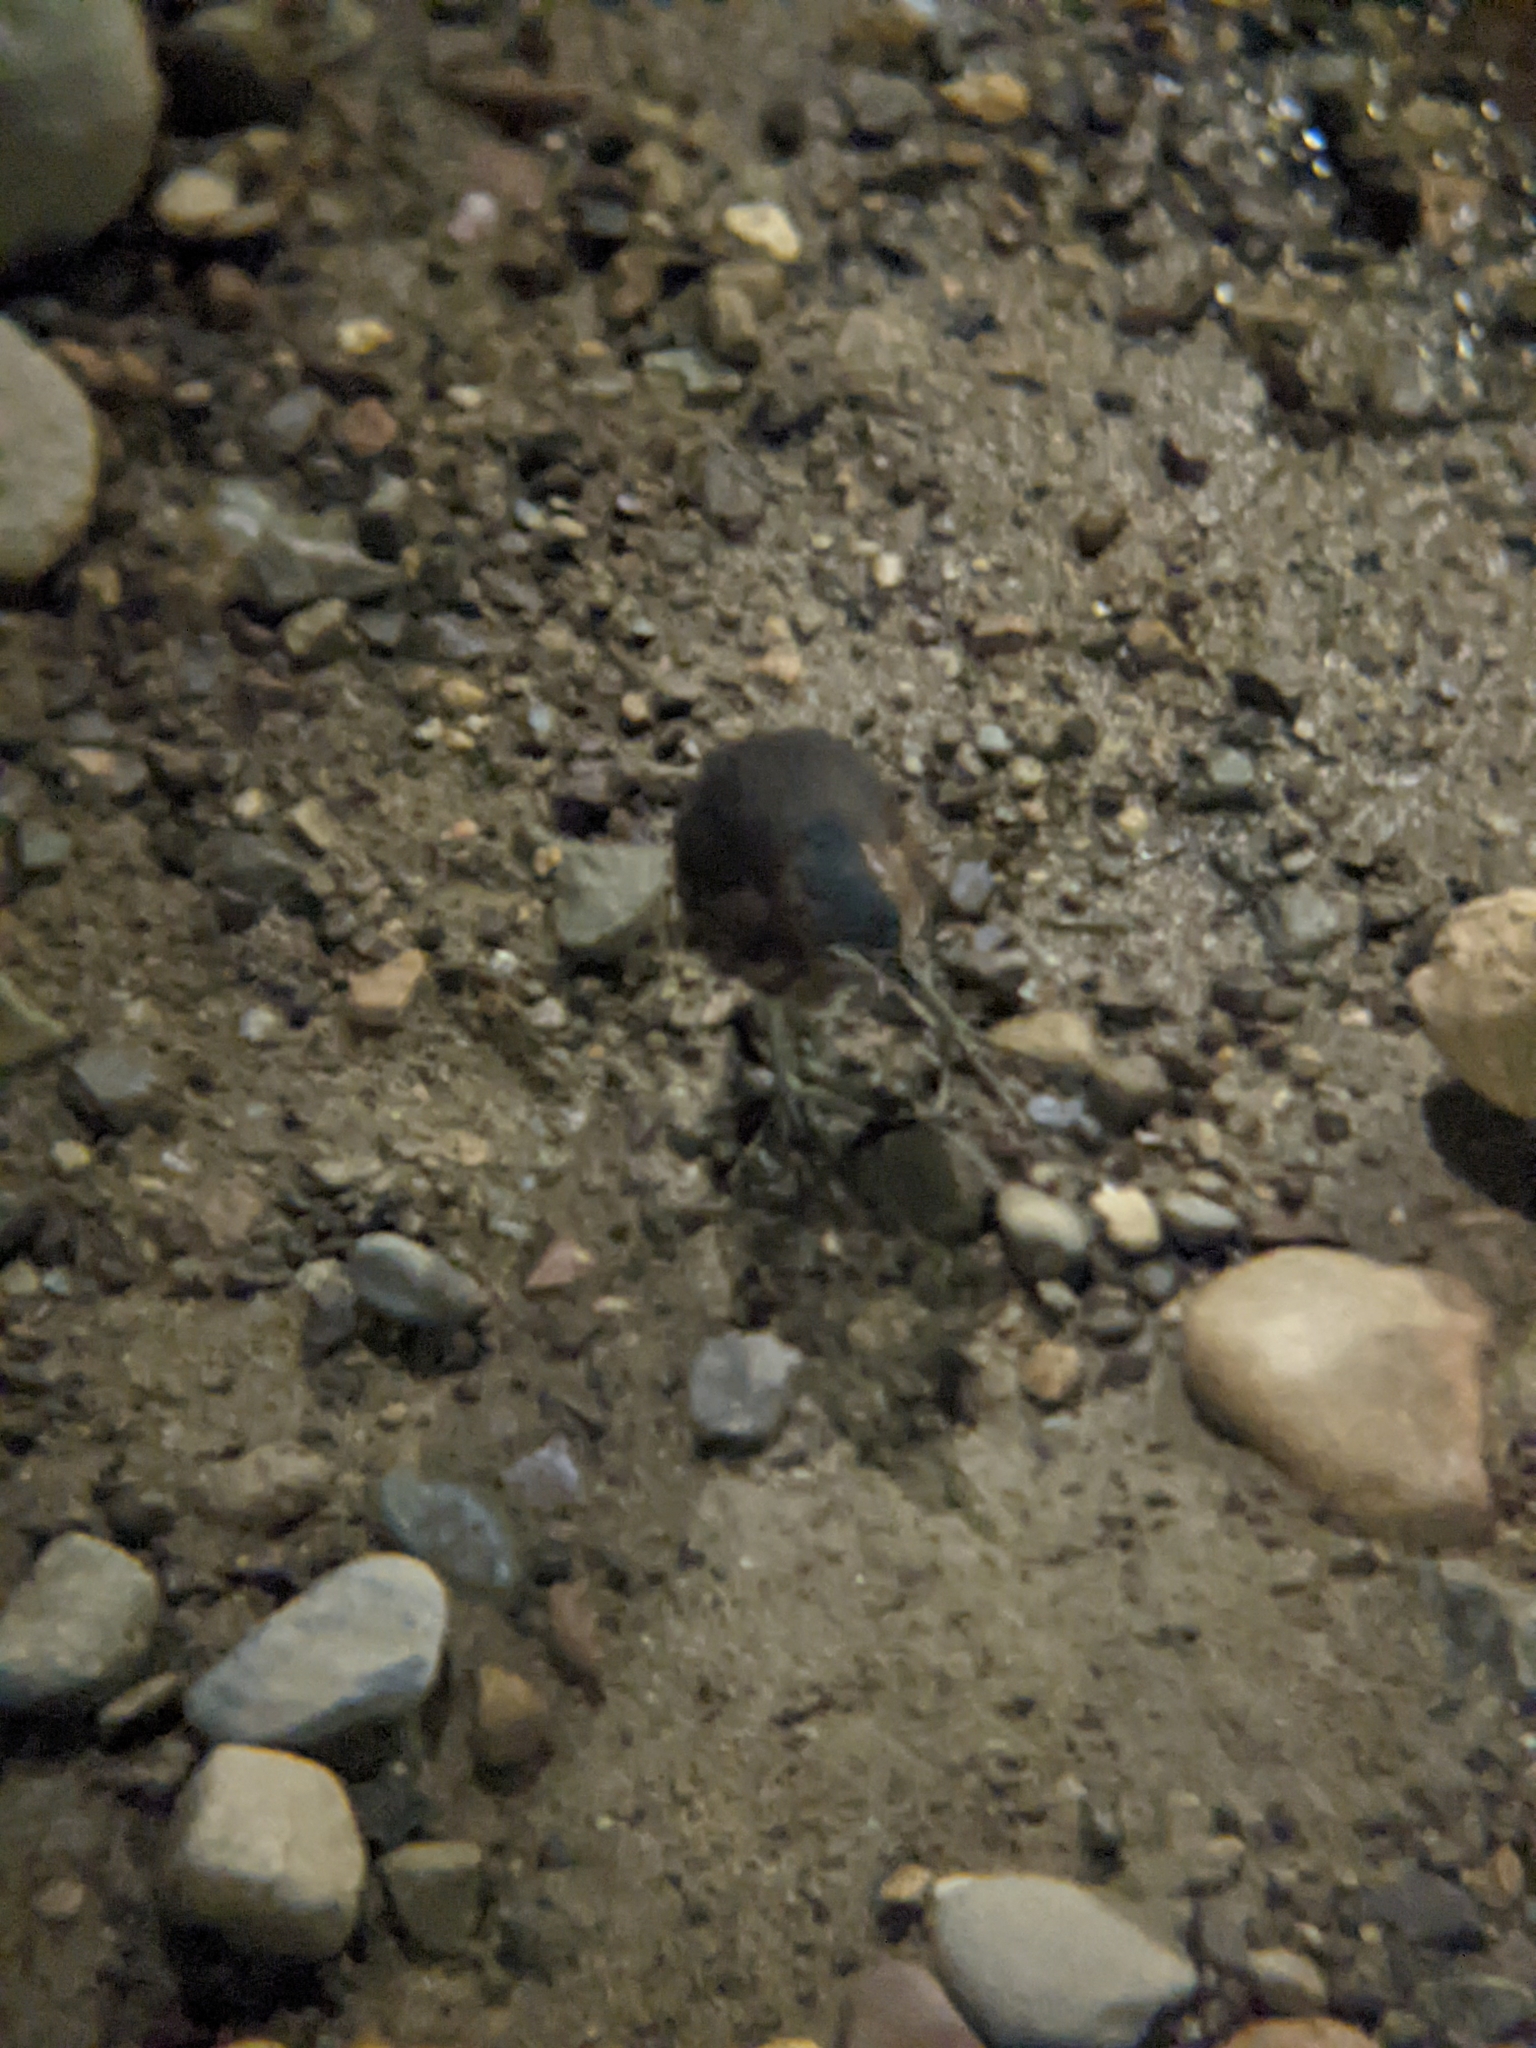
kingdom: Animalia
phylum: Chordata
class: Aves
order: Pelecaniformes
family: Ardeidae
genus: Butorides
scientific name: Butorides virescens
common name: Green heron
